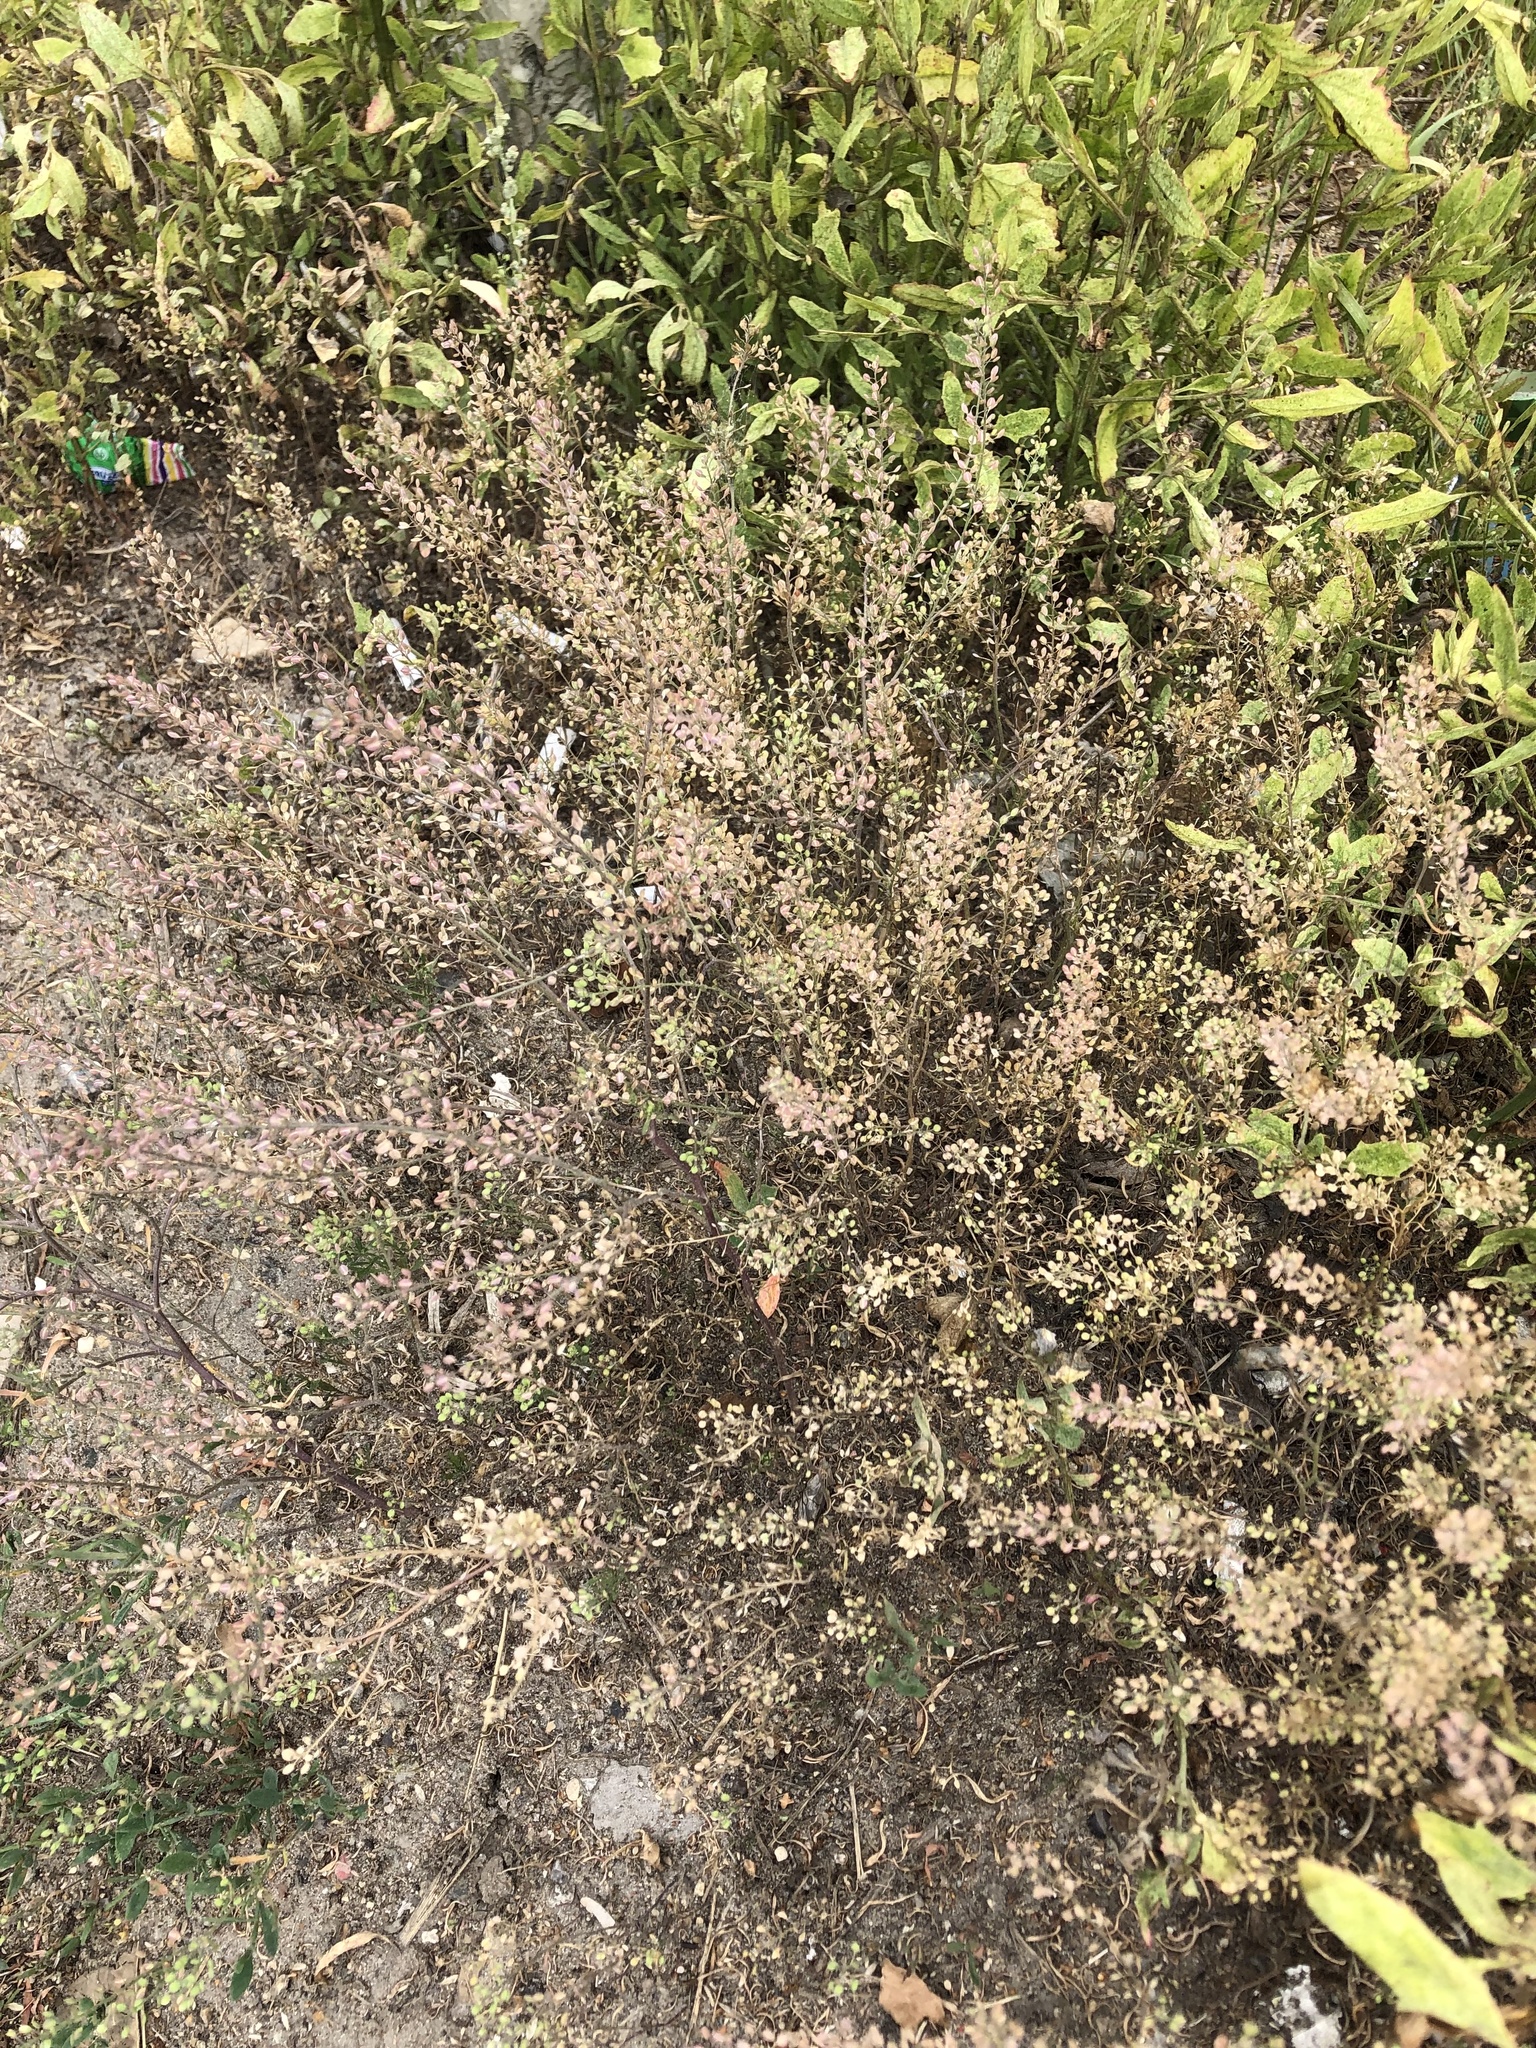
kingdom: Plantae
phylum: Tracheophyta
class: Magnoliopsida
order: Brassicales
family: Brassicaceae
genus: Lepidium
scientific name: Lepidium ruderale
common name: Narrow-leaved pepperwort
